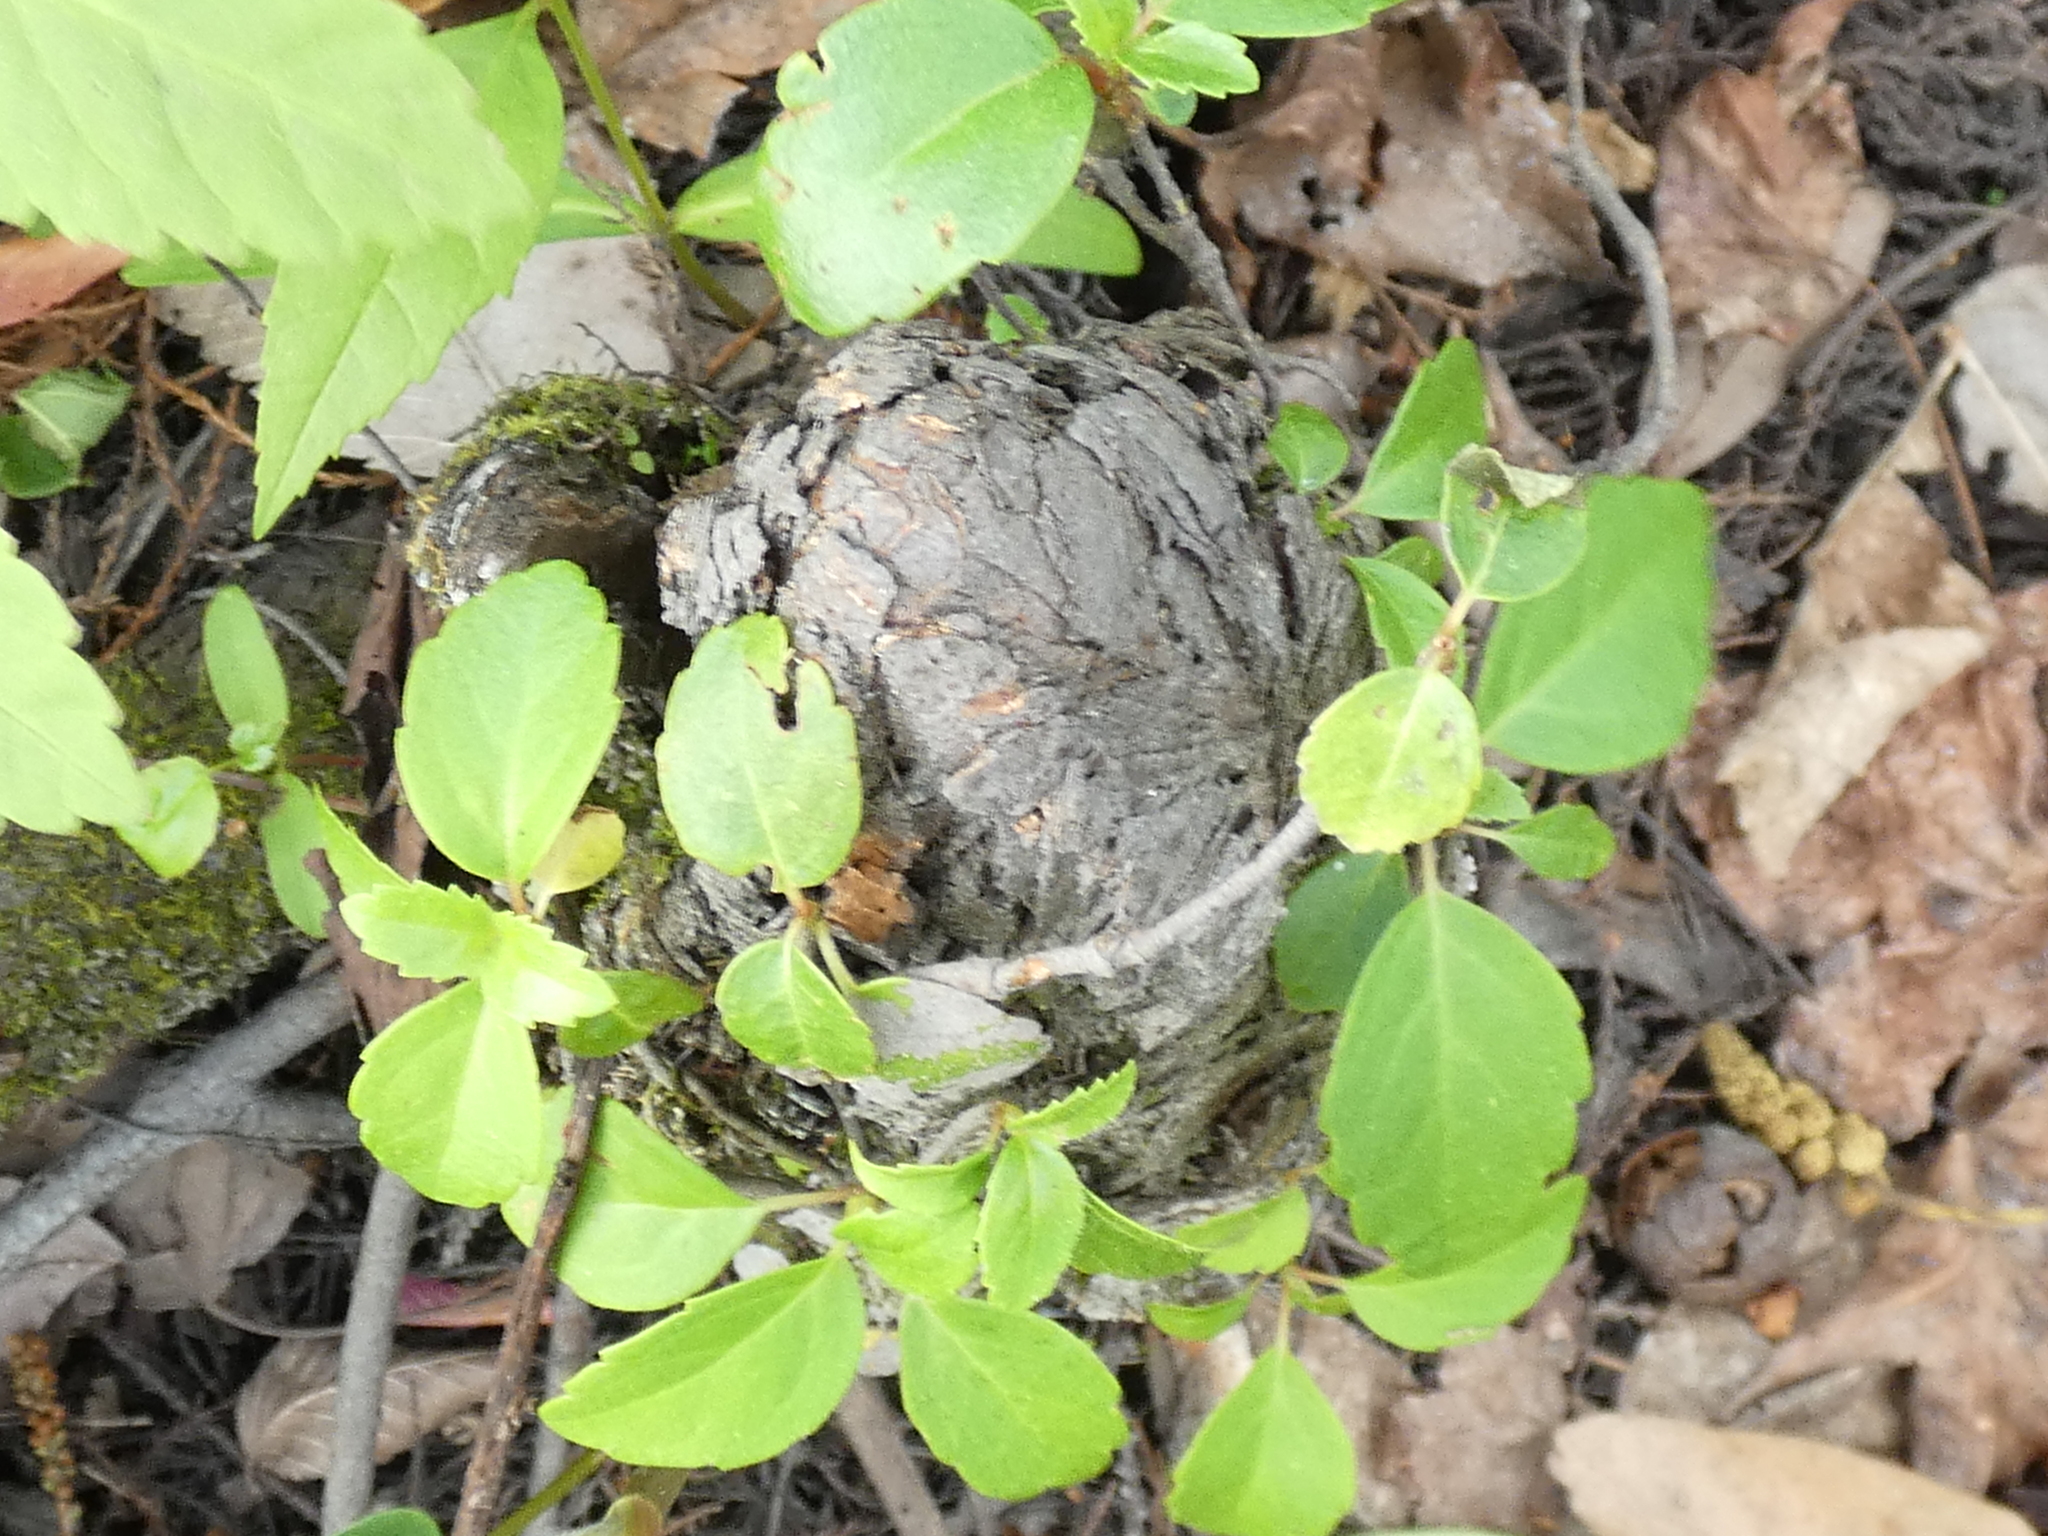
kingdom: Plantae
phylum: Tracheophyta
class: Magnoliopsida
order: Cornales
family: Hydrangeaceae
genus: Hydrangea
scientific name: Hydrangea barbara
